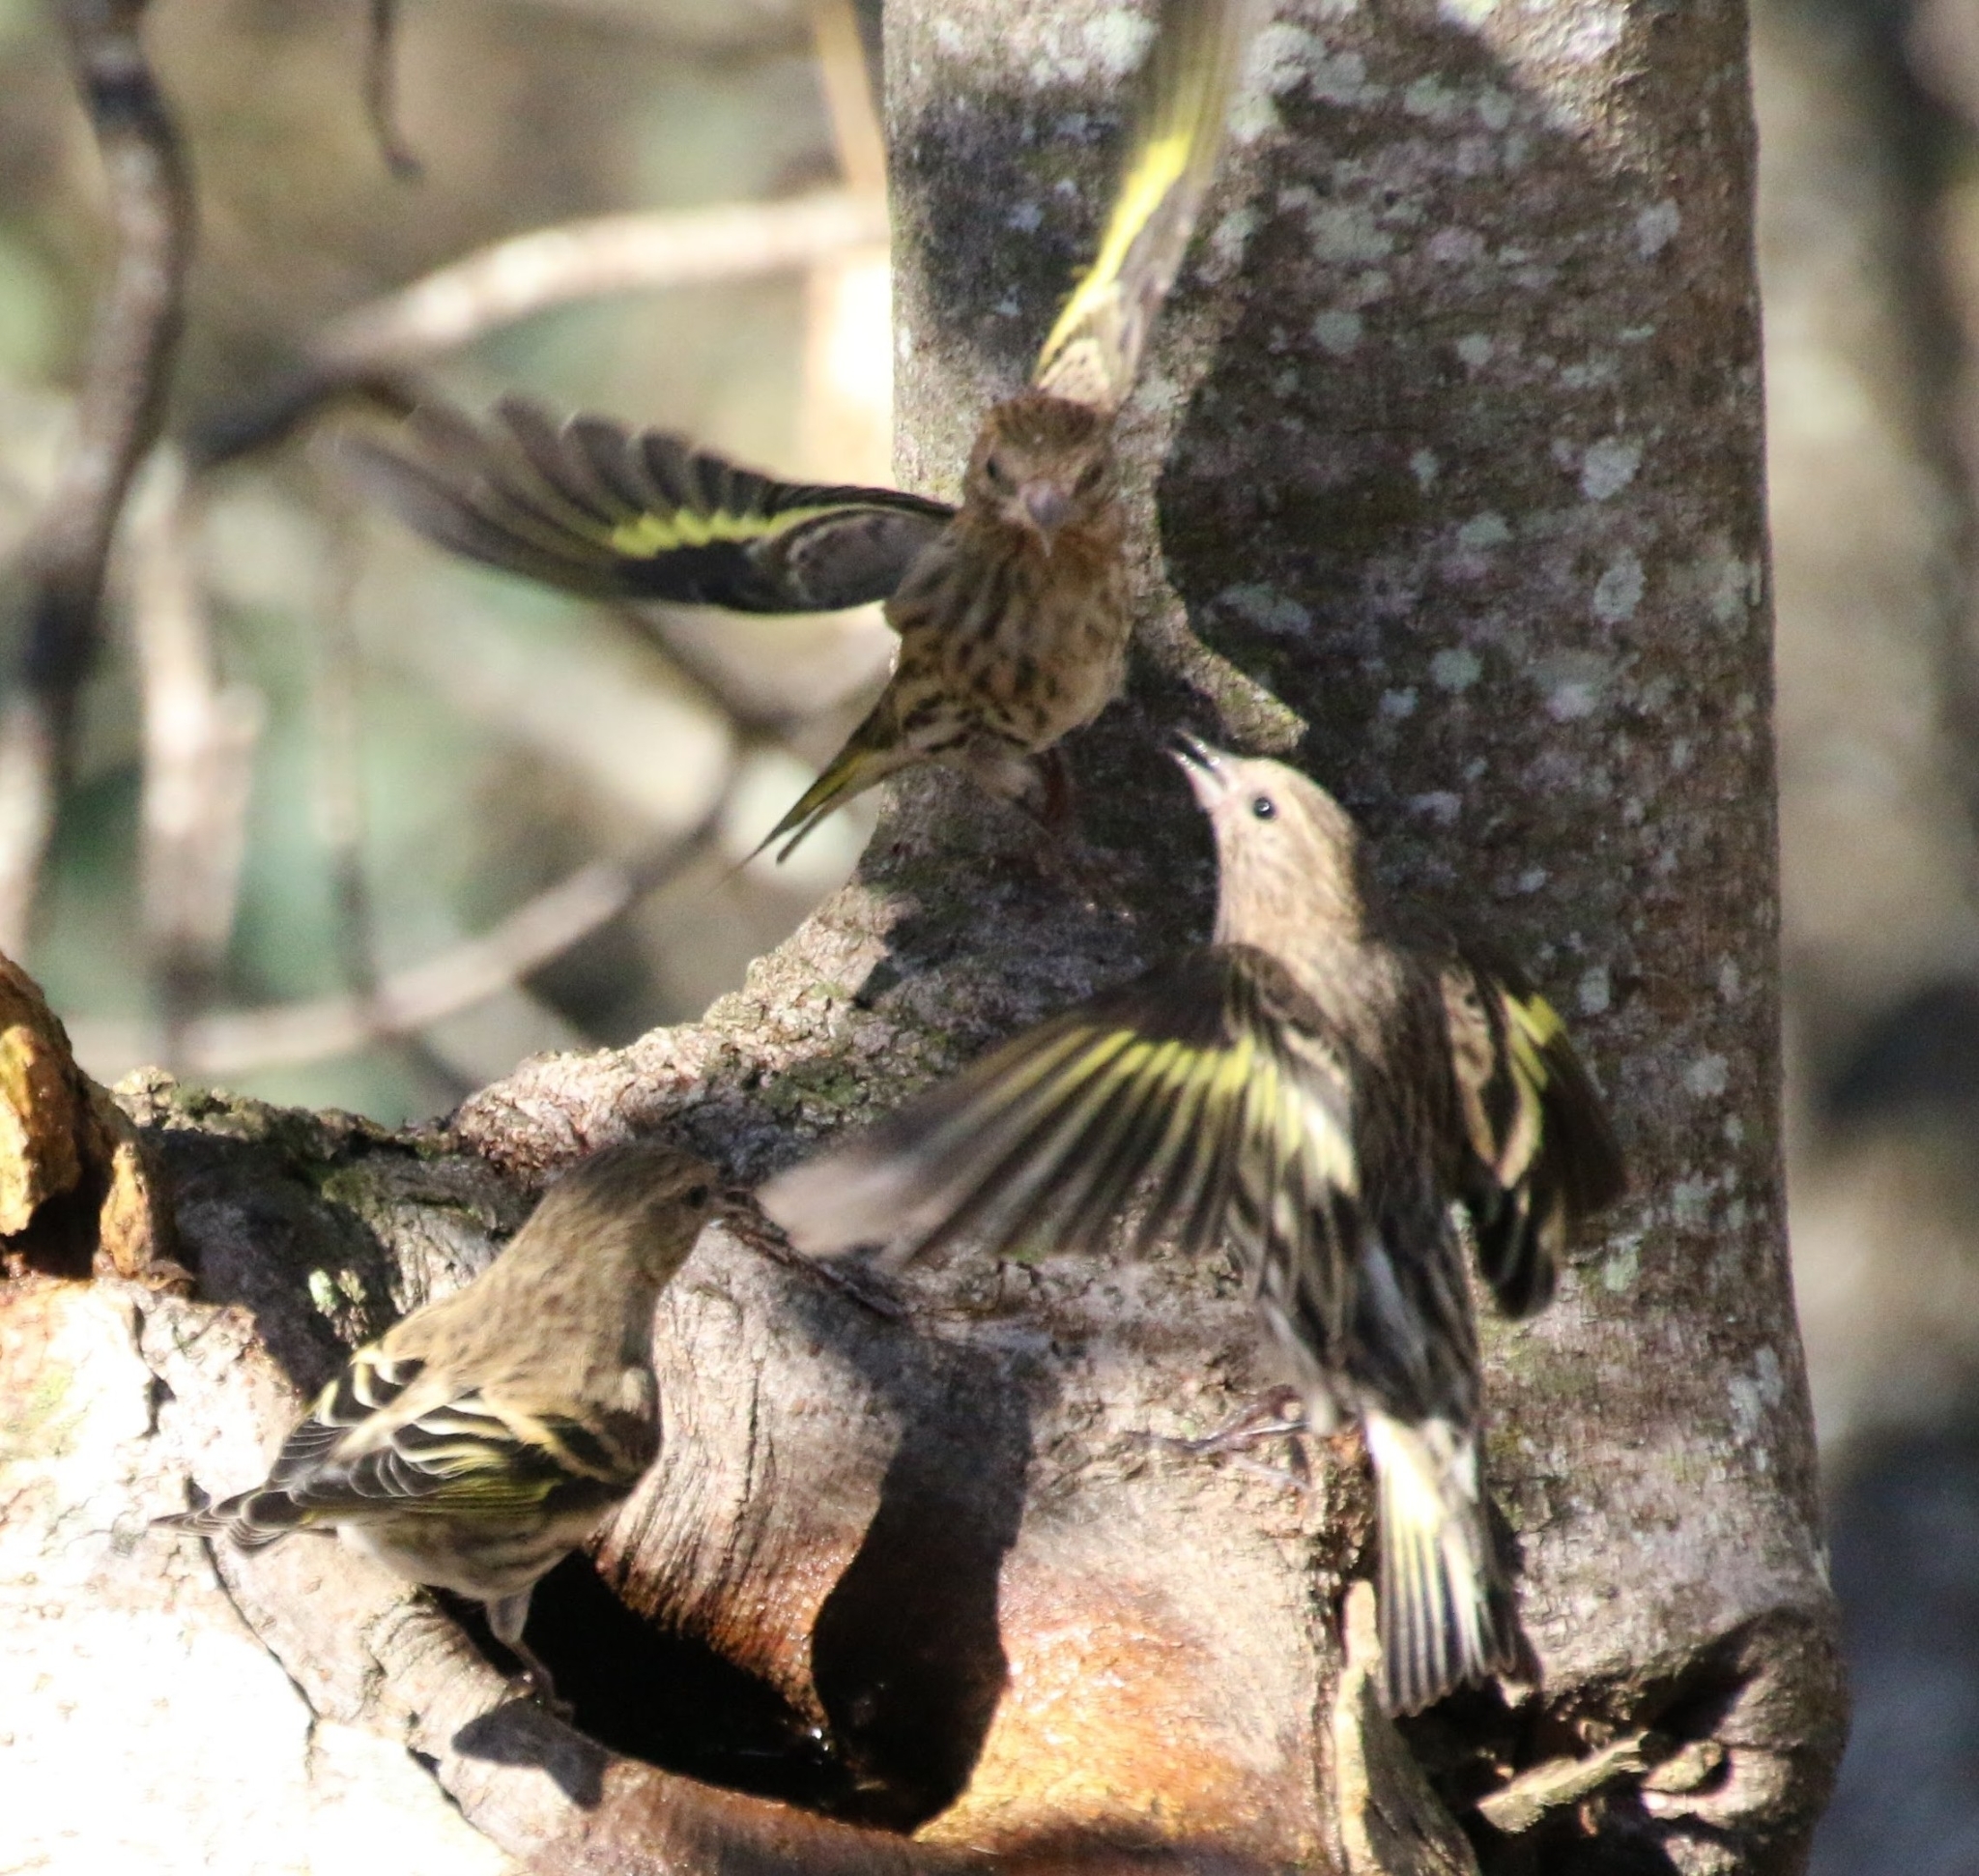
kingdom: Animalia
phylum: Chordata
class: Aves
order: Passeriformes
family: Fringillidae
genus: Spinus
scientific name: Spinus pinus
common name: Pine siskin
